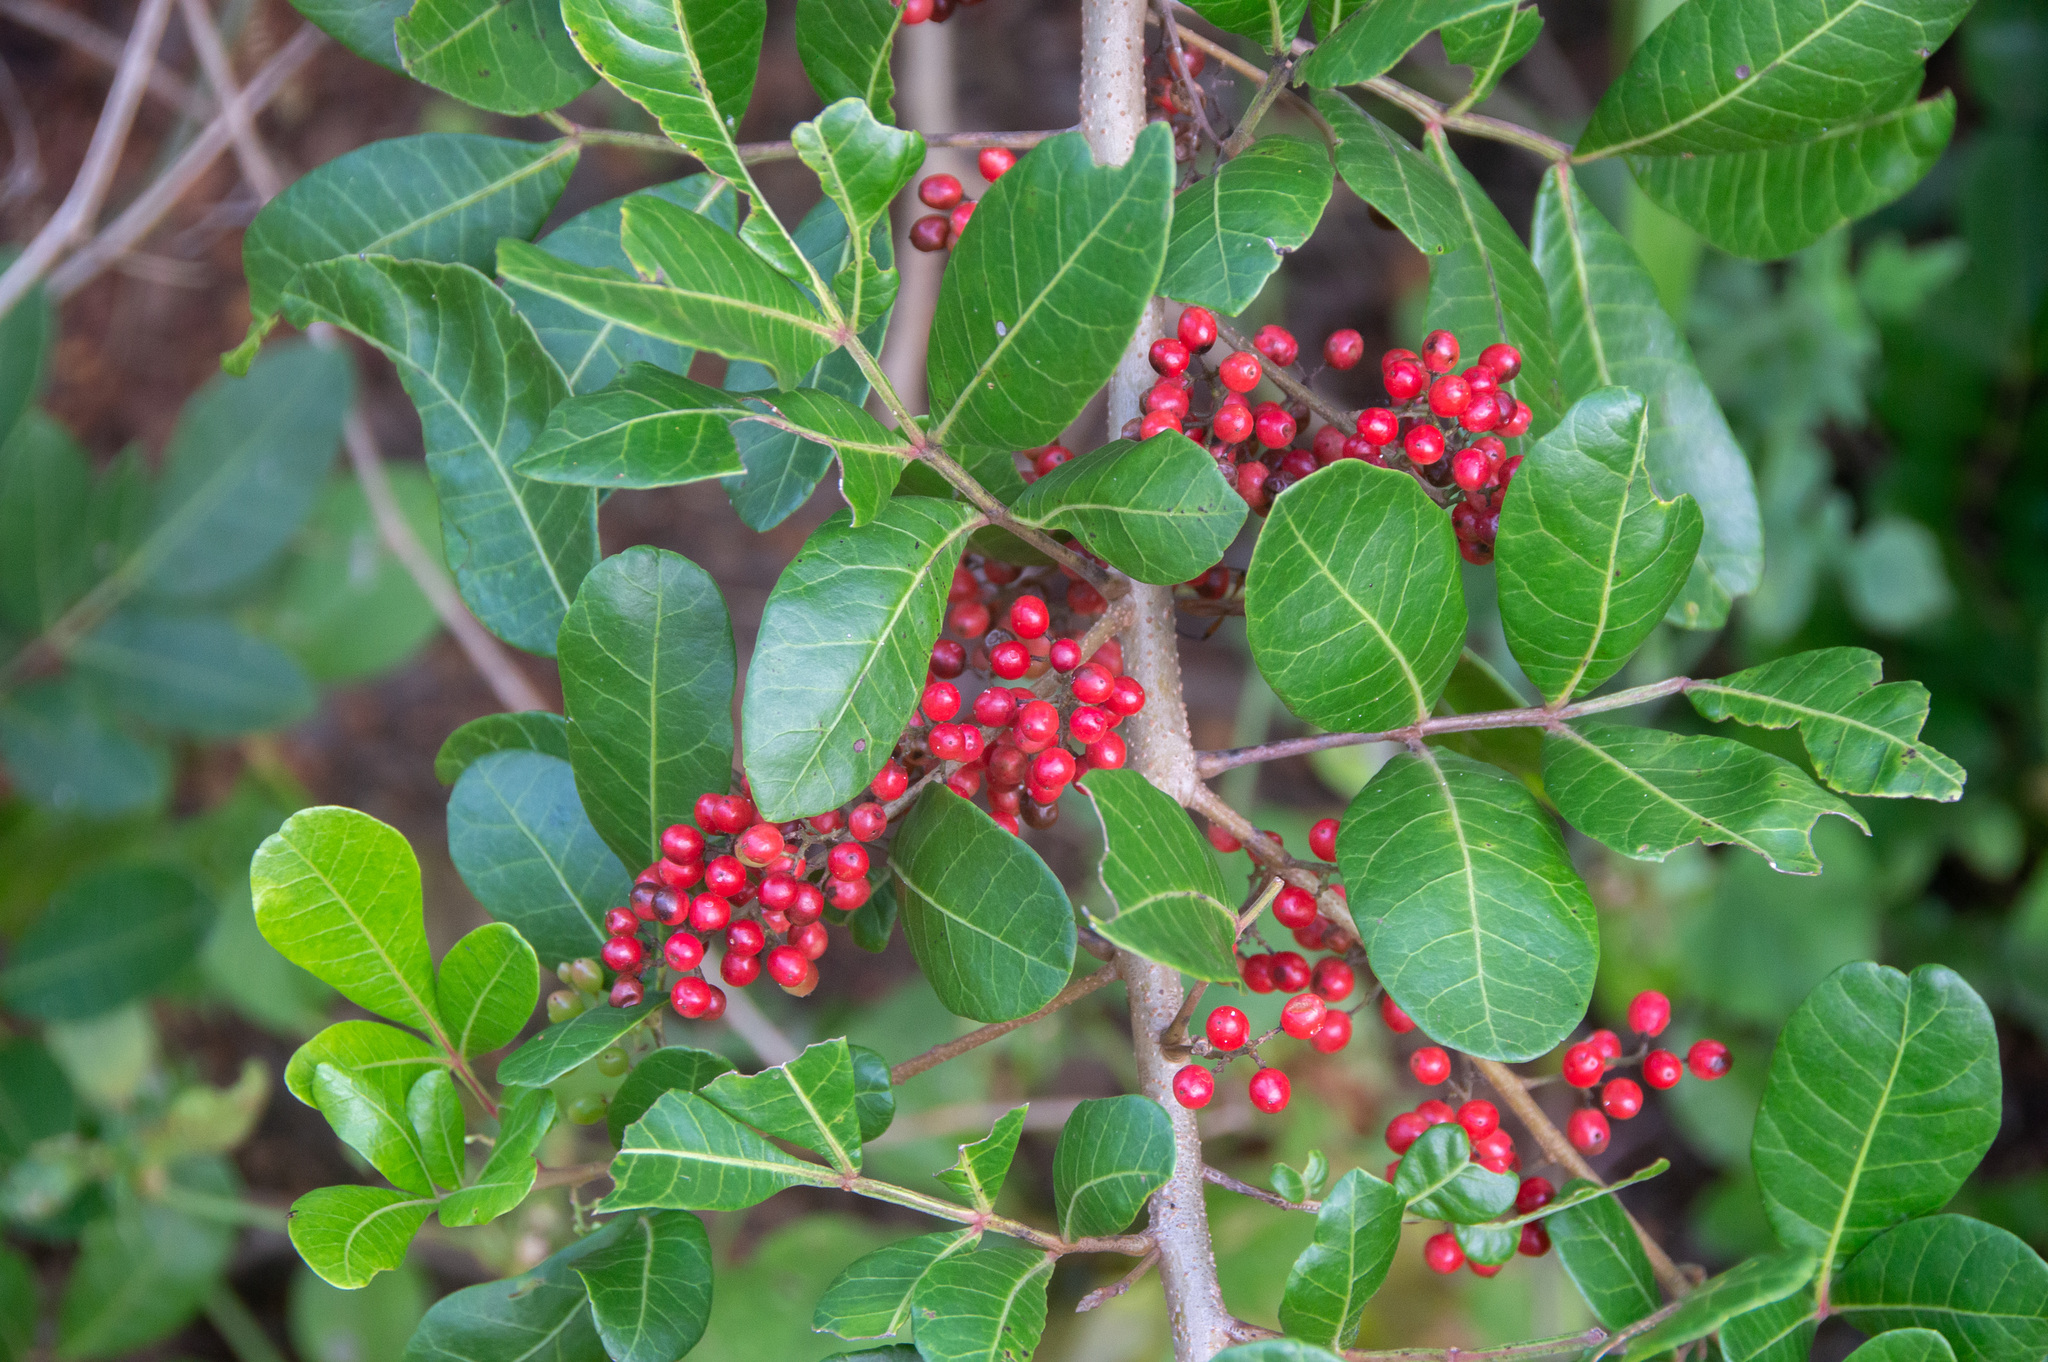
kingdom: Plantae
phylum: Tracheophyta
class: Magnoliopsida
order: Sapindales
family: Anacardiaceae
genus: Schinus
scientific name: Schinus terebinthifolia
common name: Brazilian peppertree
